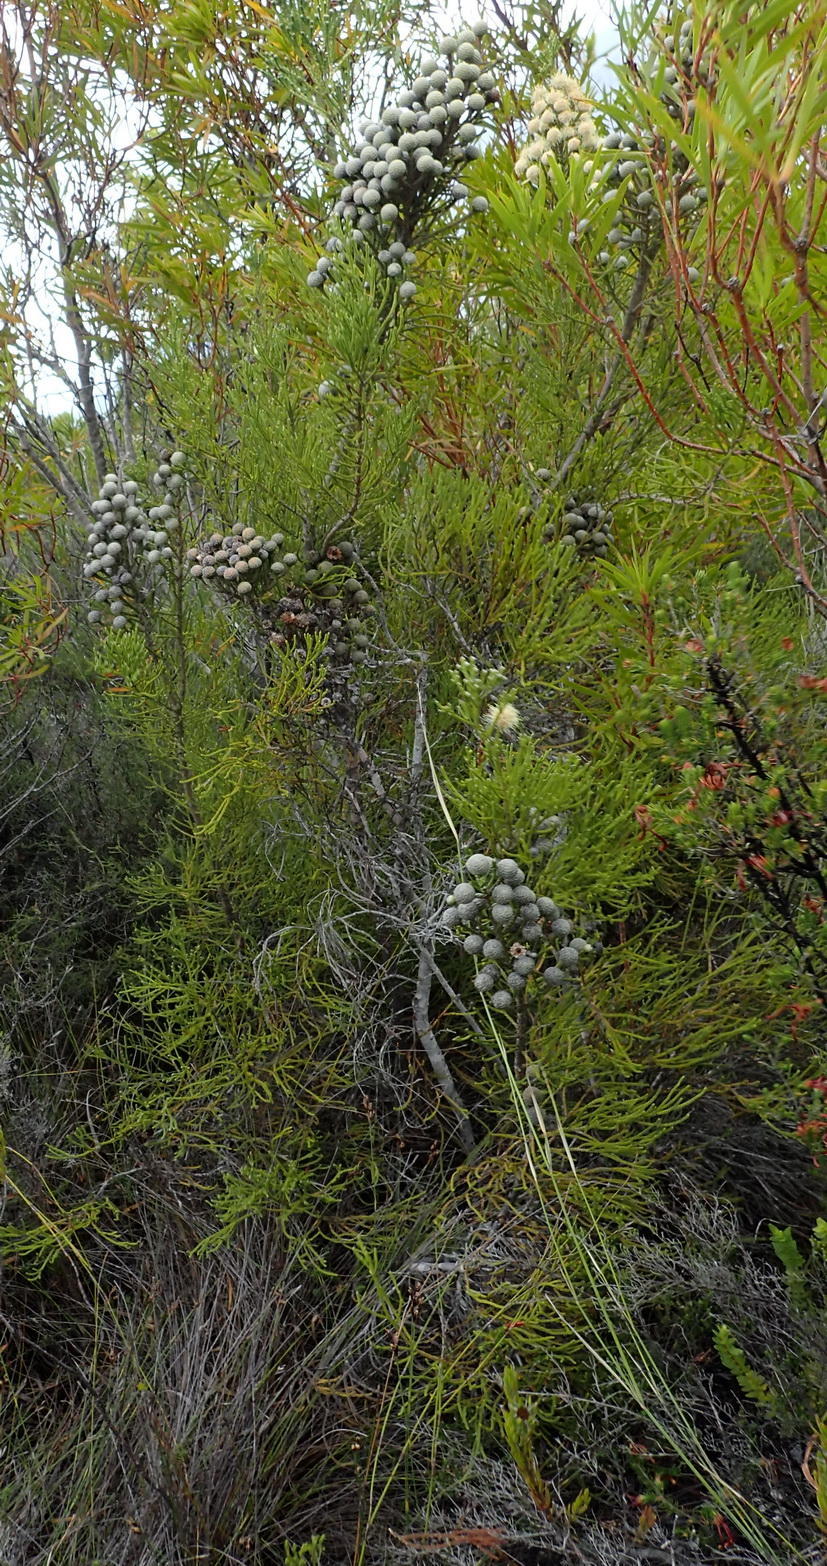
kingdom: Plantae
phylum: Tracheophyta
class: Magnoliopsida
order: Bruniales
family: Bruniaceae
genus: Brunia
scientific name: Brunia noduliflora
